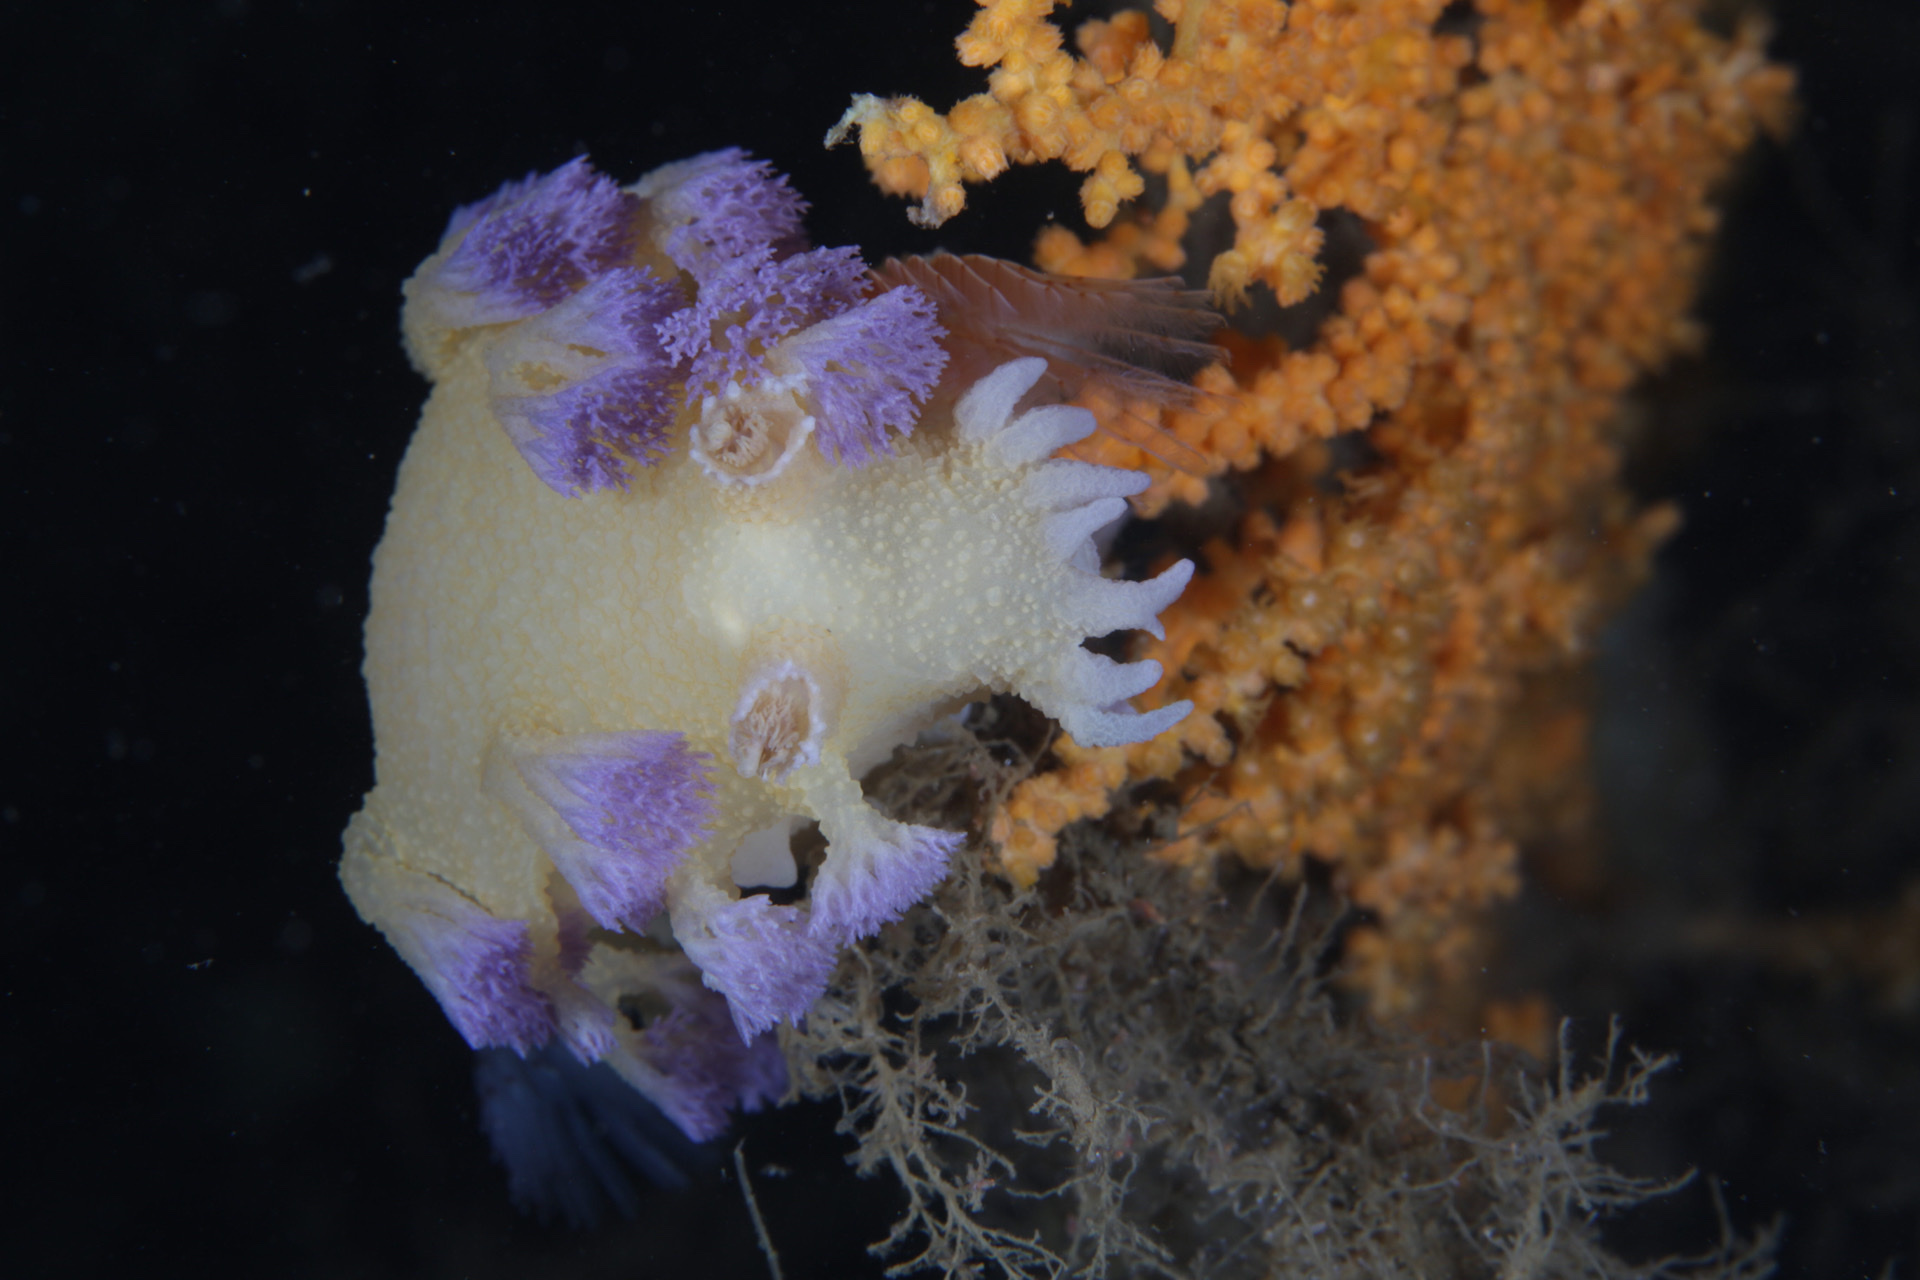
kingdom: Animalia
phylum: Mollusca
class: Gastropoda
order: Nudibranchia
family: Tritoniidae
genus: Tritonia
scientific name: Tritonia griegi
